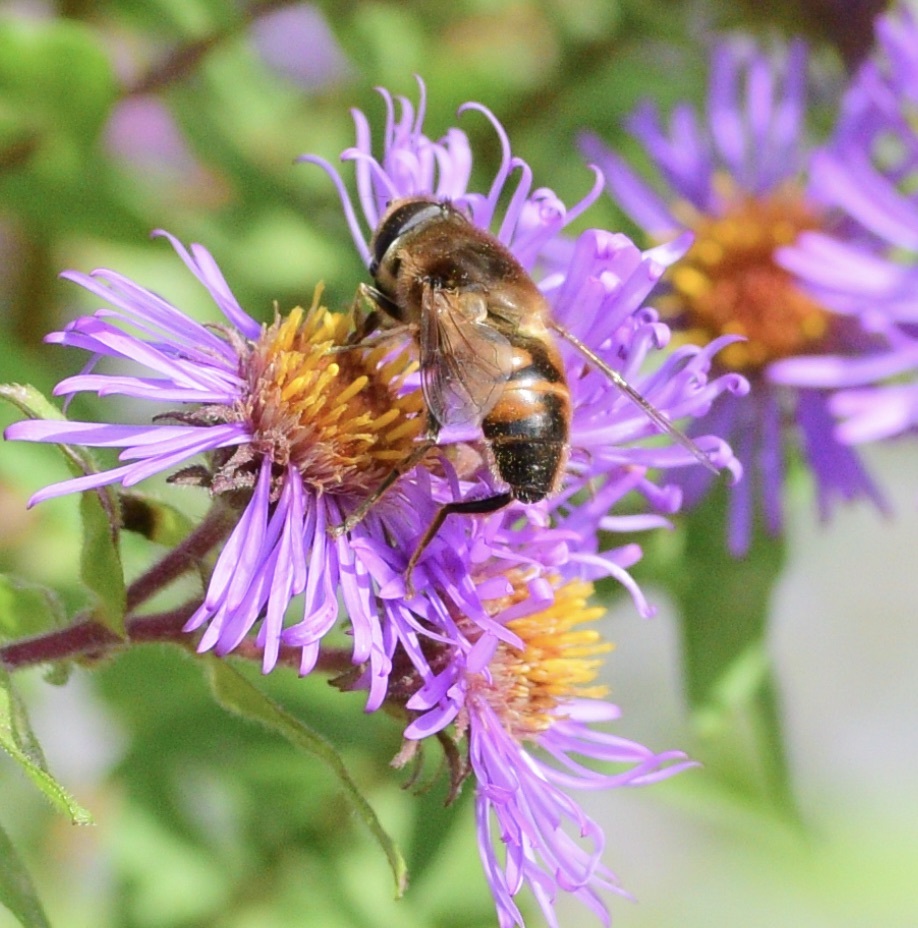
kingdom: Animalia
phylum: Arthropoda
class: Insecta
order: Diptera
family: Syrphidae
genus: Eristalis
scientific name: Eristalis tenax
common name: Drone fly
